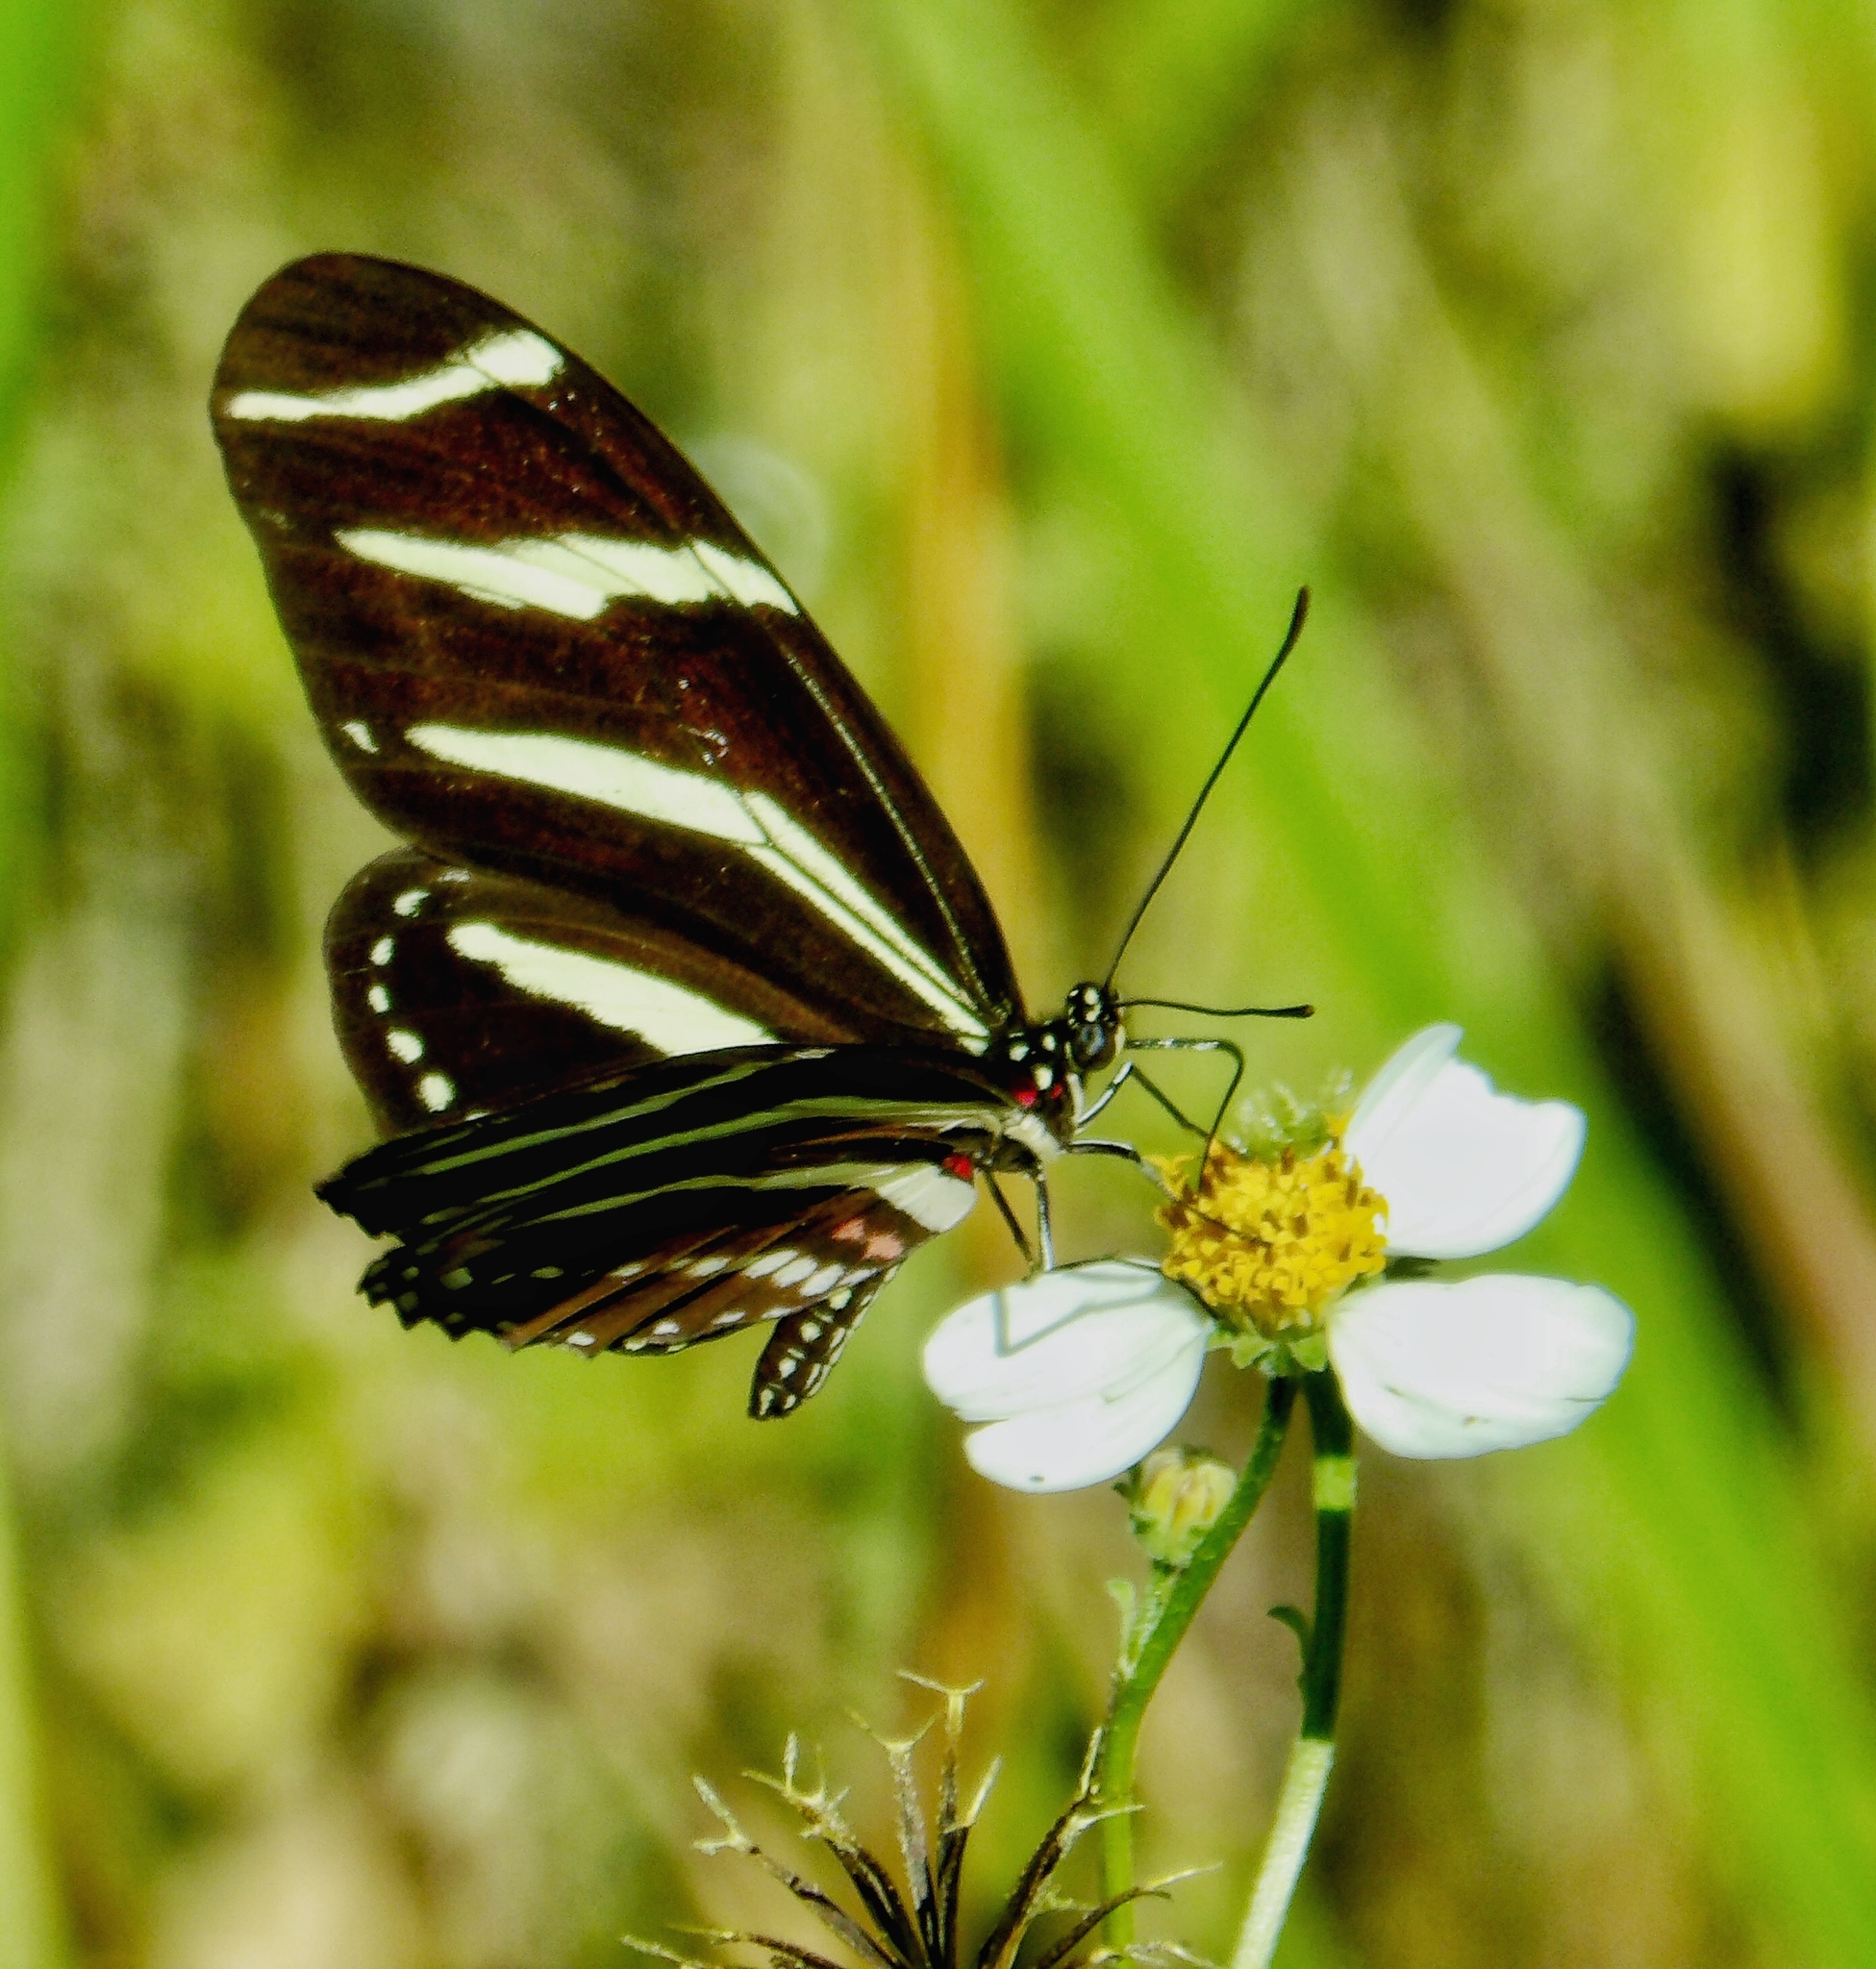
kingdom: Animalia
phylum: Arthropoda
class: Insecta
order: Lepidoptera
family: Nymphalidae
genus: Heliconius
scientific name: Heliconius charithonia
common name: Zebra long wing
